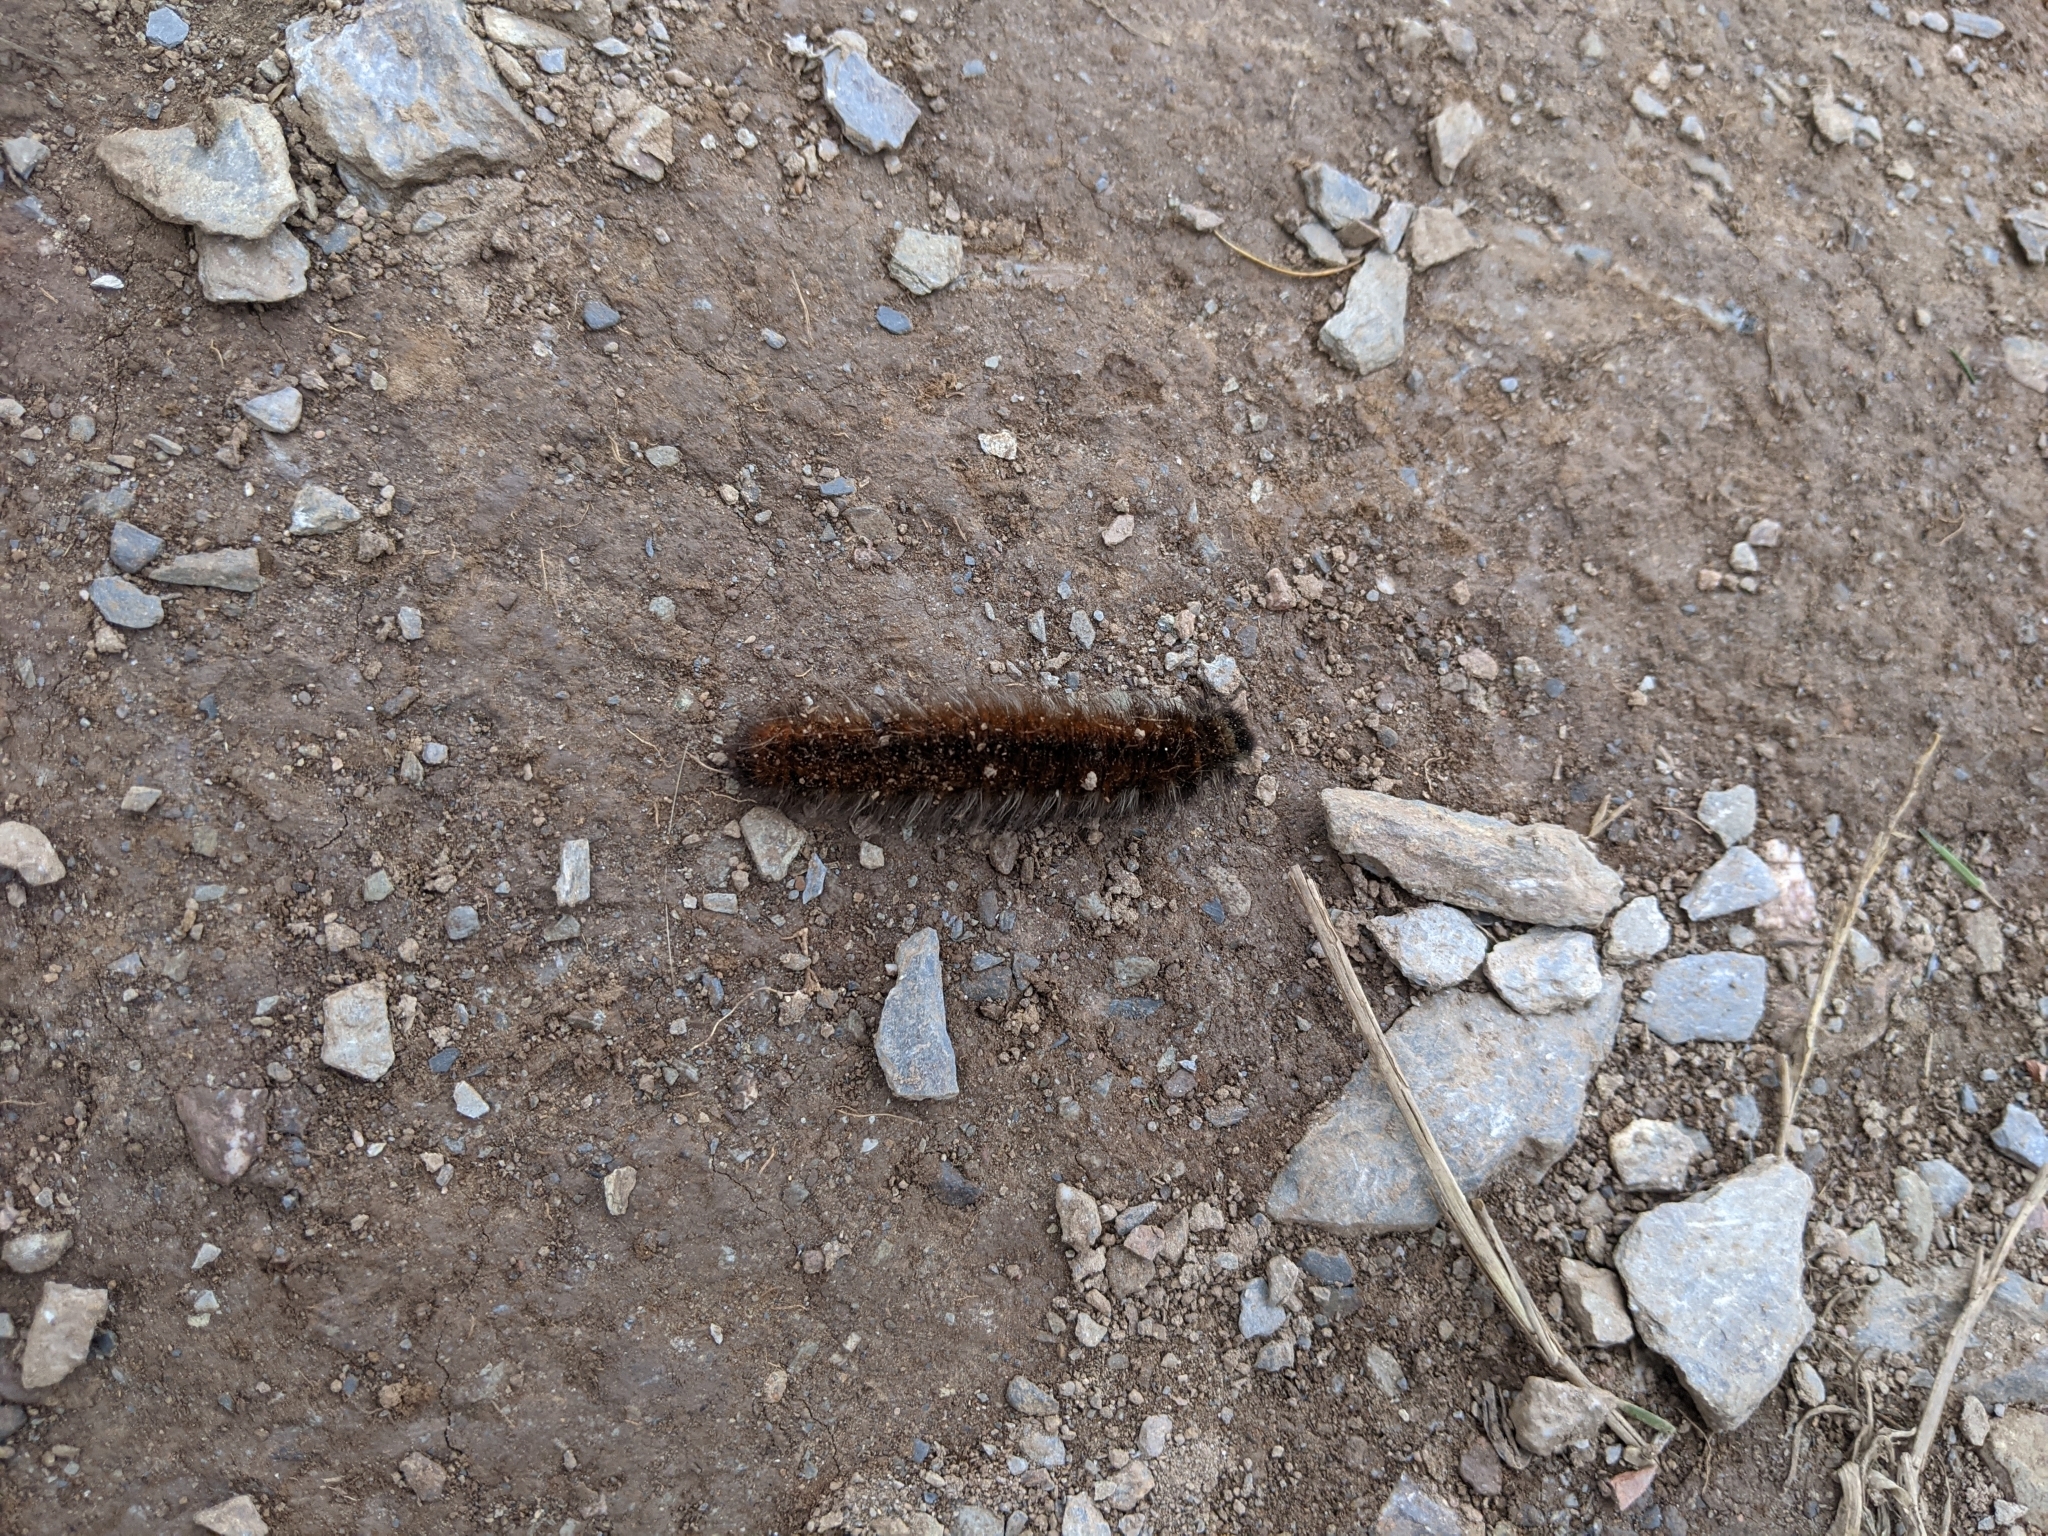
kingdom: Animalia
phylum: Arthropoda
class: Insecta
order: Lepidoptera
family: Lasiocampidae
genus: Macrothylacia
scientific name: Macrothylacia rubi
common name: Fox moth
